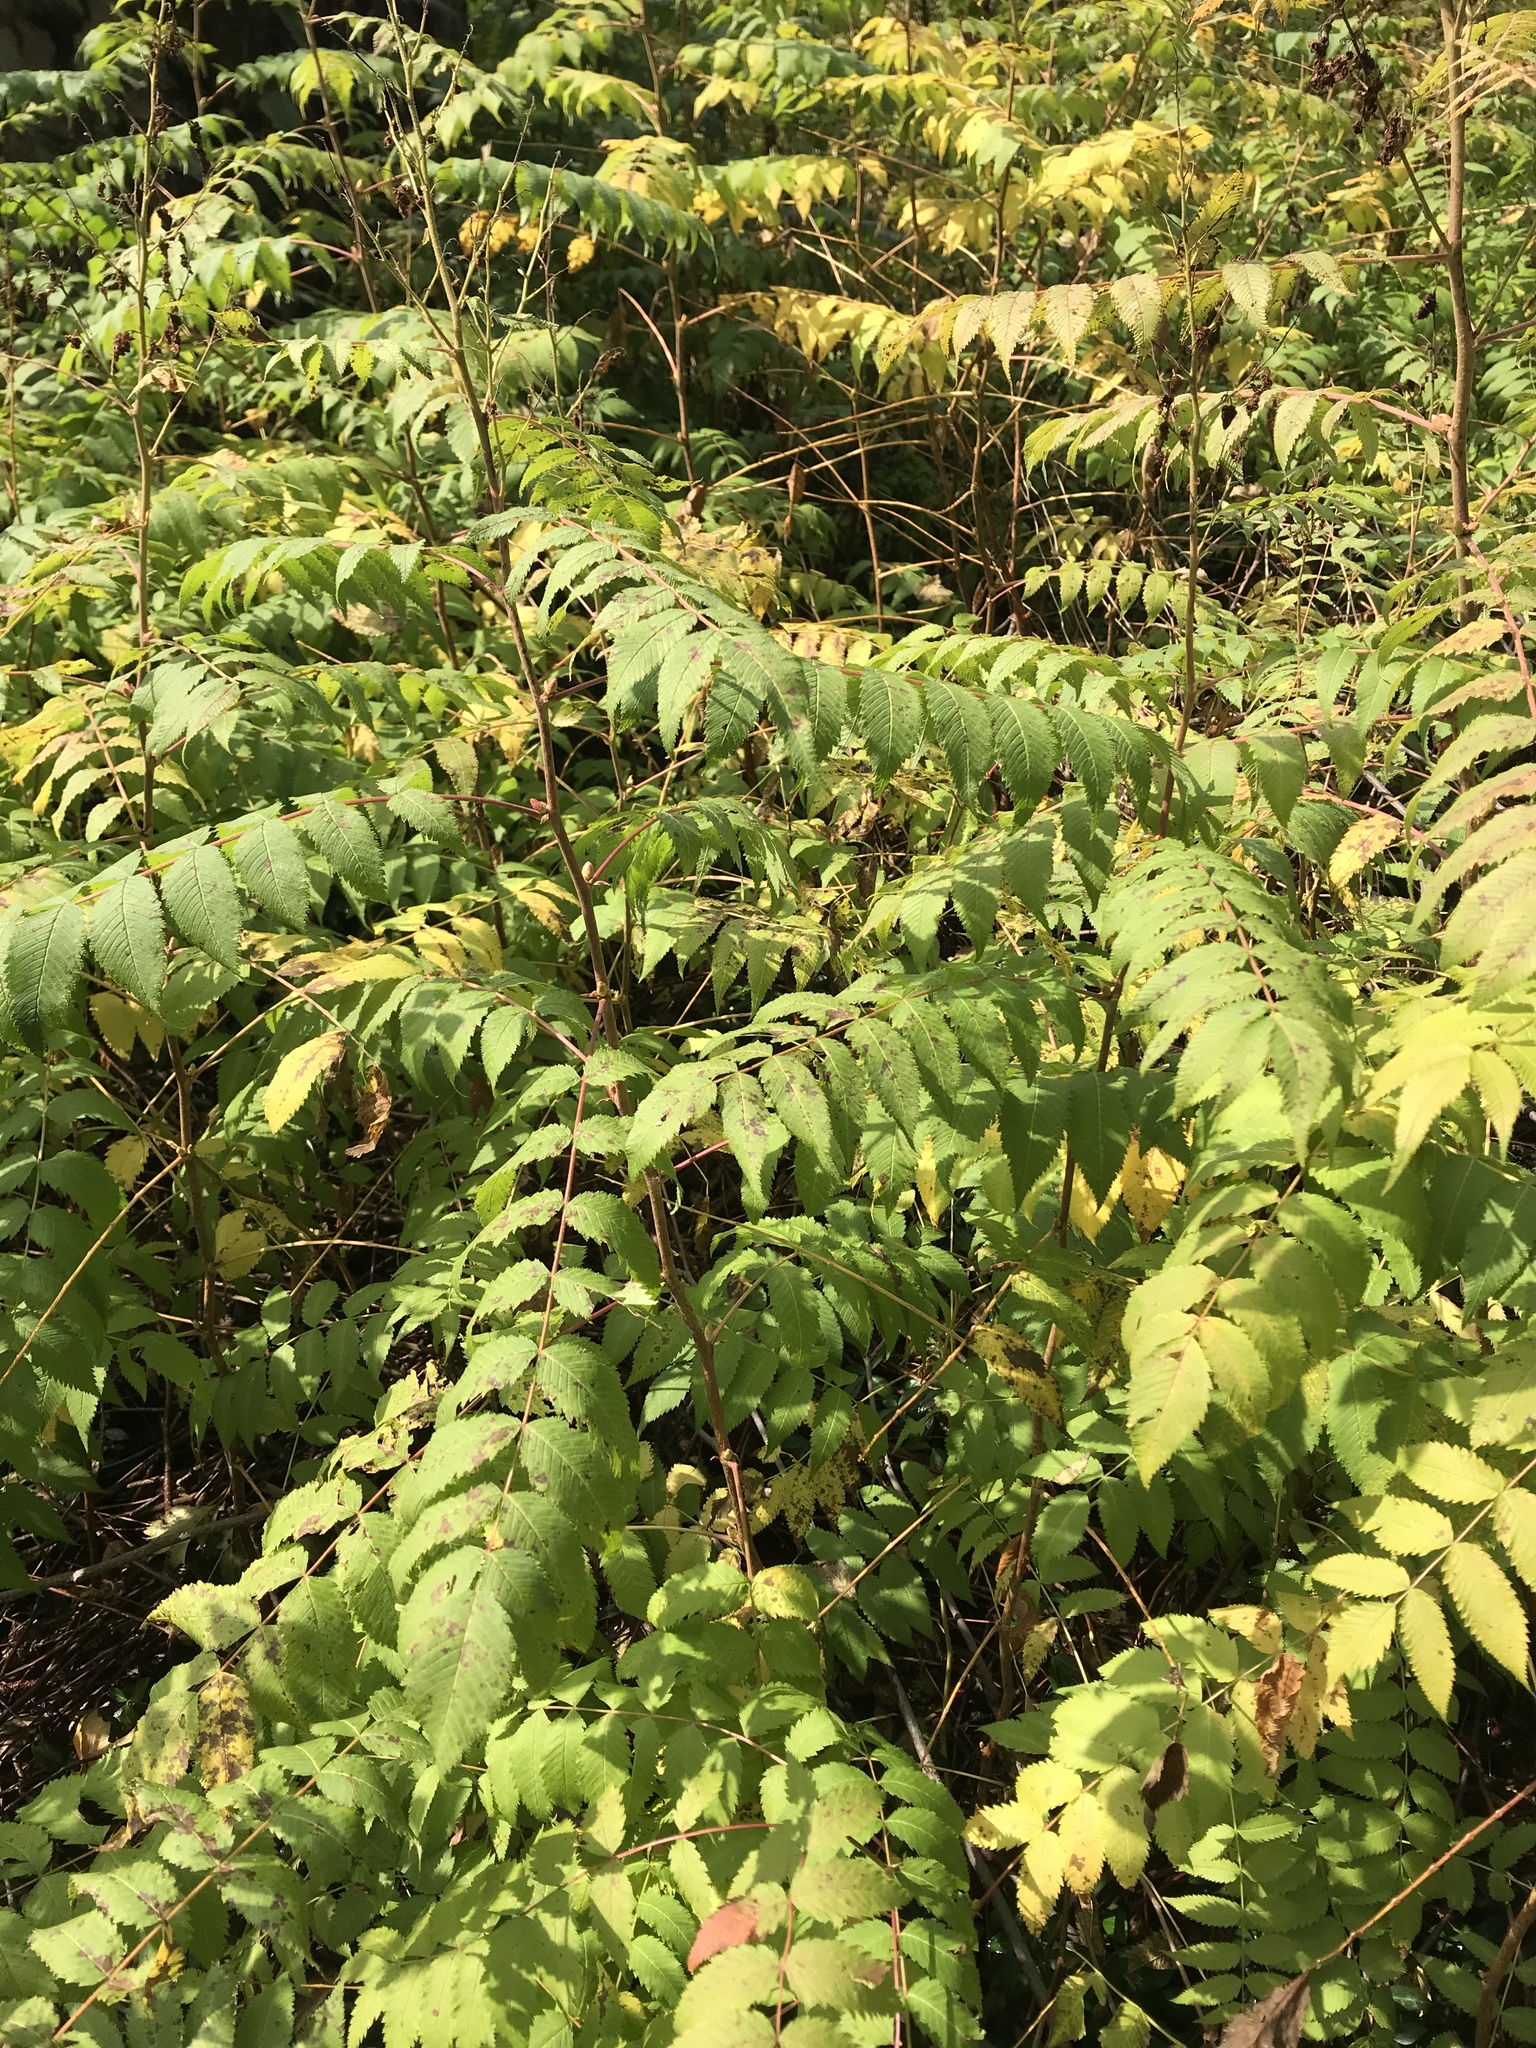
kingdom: Plantae
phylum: Tracheophyta
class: Magnoliopsida
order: Rosales
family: Rosaceae
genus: Sorbaria
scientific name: Sorbaria sorbifolia
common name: False spiraea
